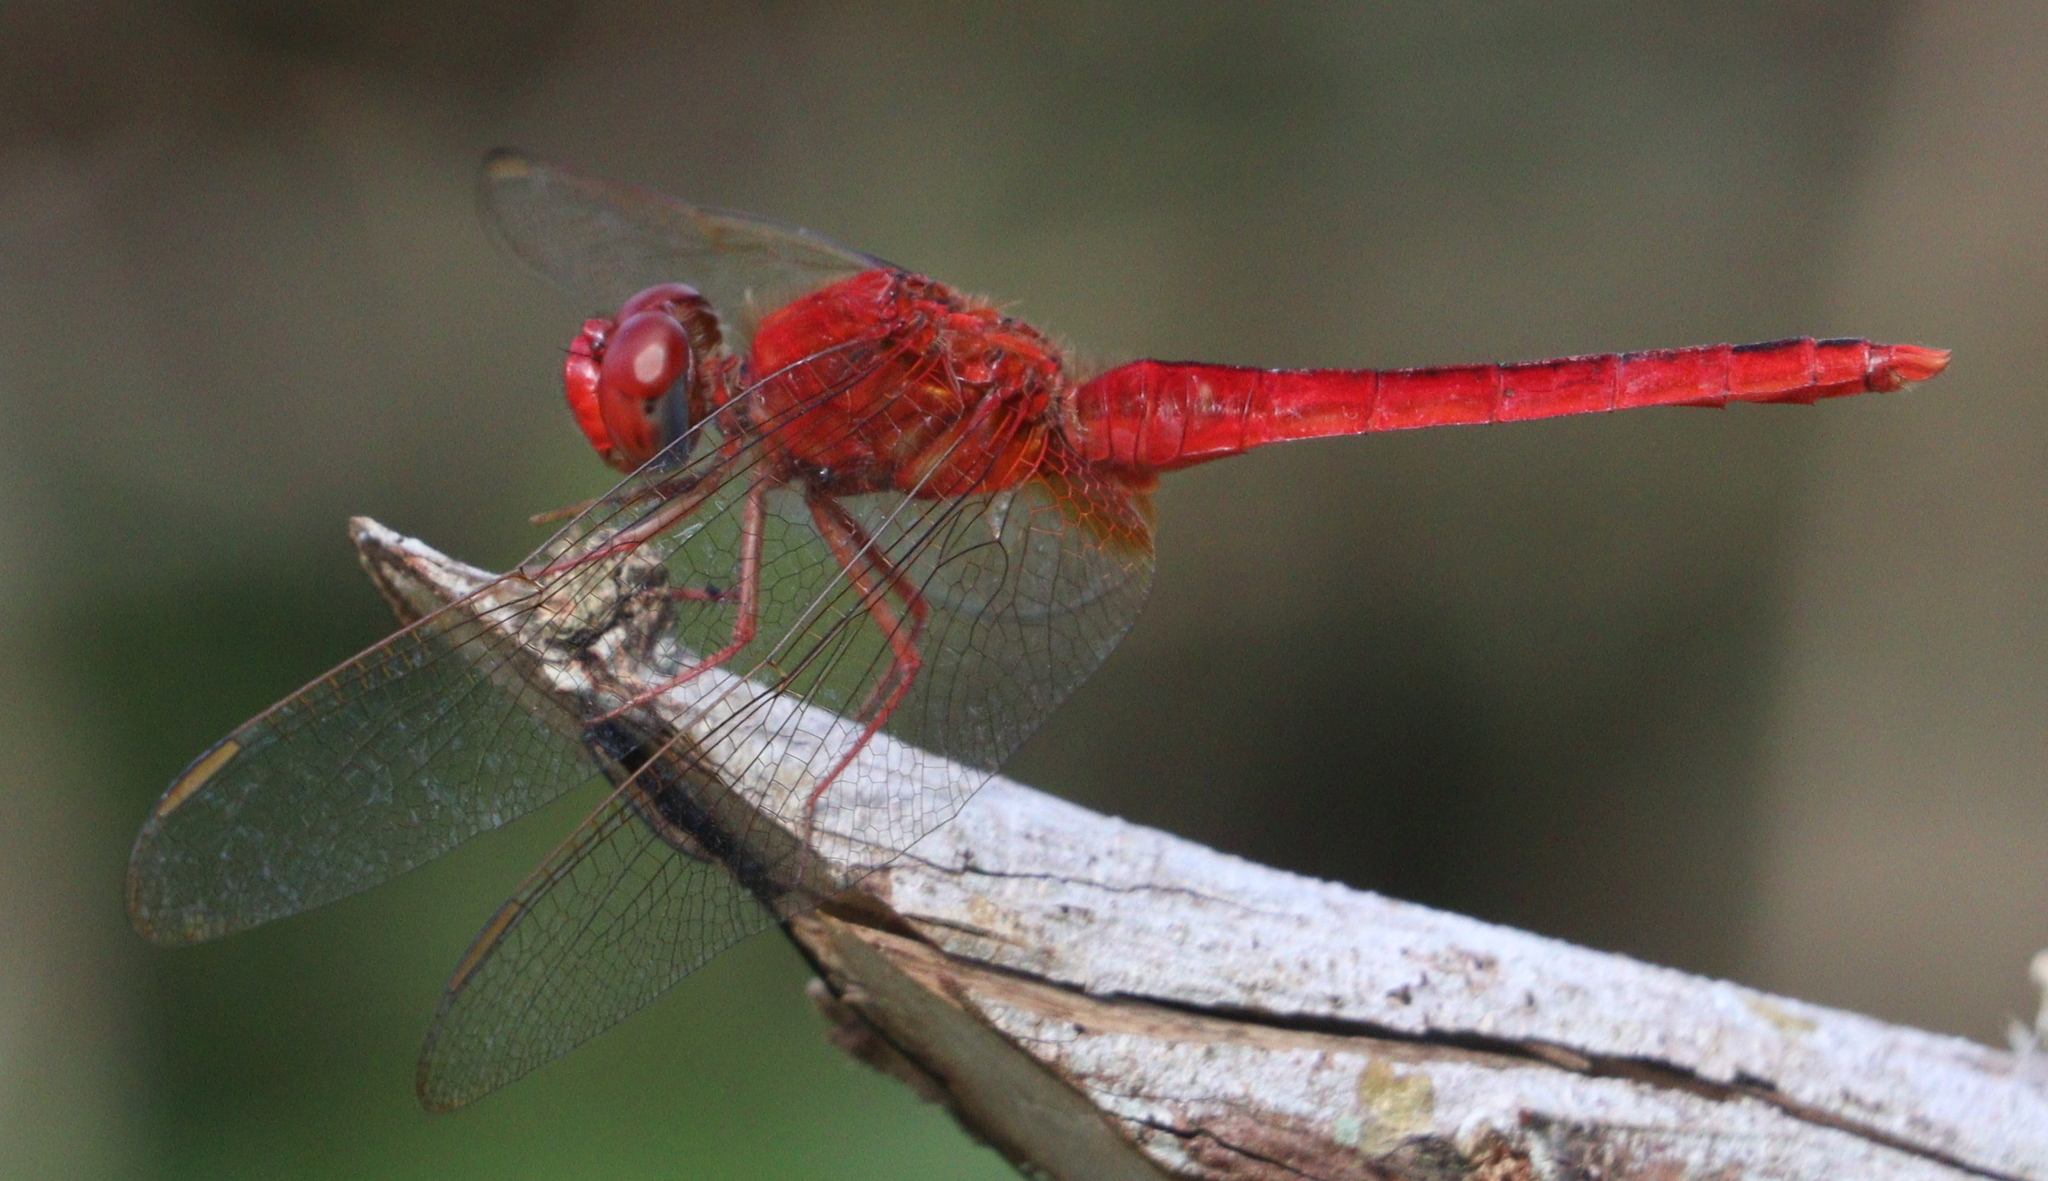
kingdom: Animalia
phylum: Arthropoda
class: Insecta
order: Odonata
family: Libellulidae
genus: Crocothemis
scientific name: Crocothemis servilia
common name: Scarlet skimmer
